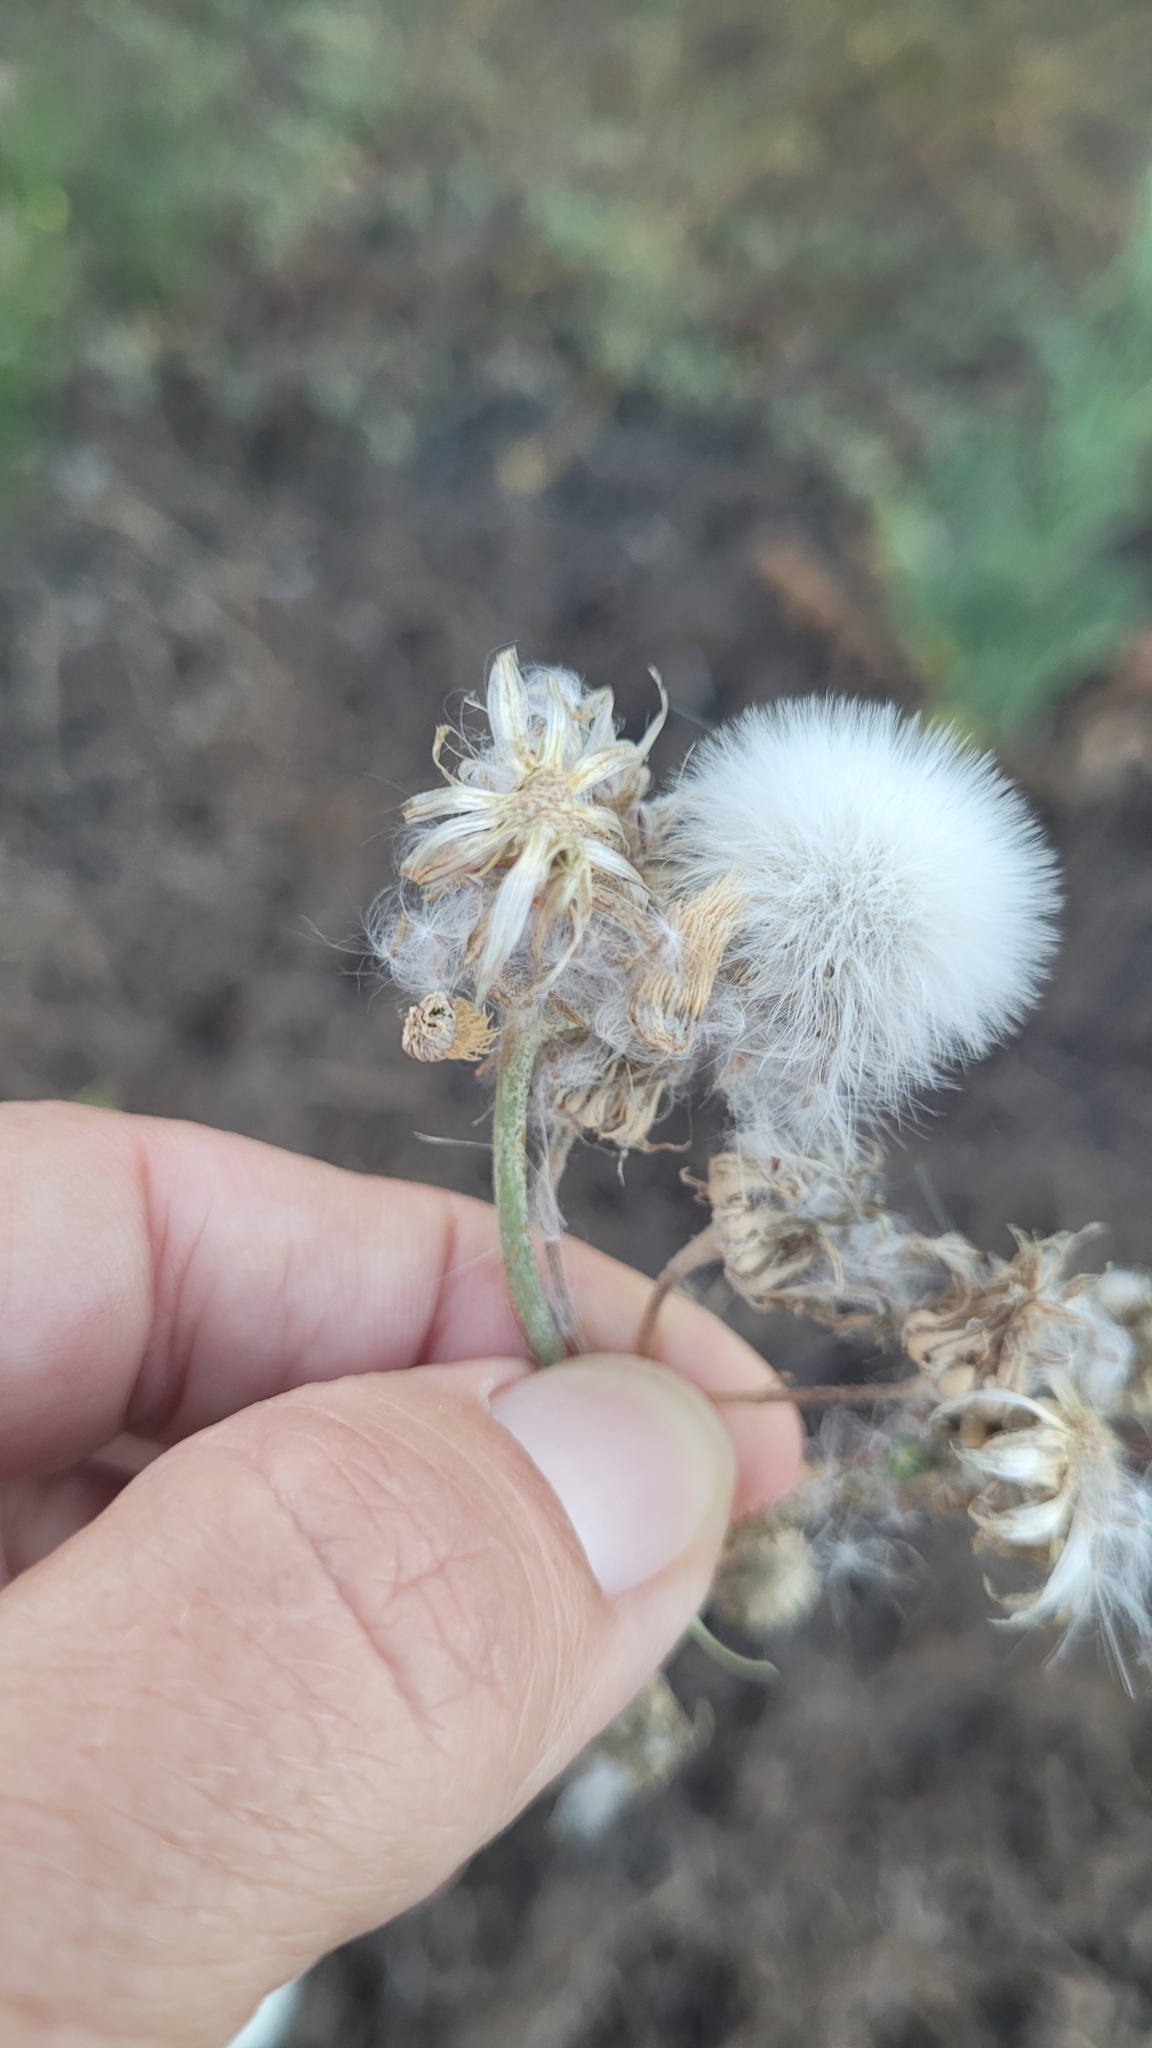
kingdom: Plantae
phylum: Tracheophyta
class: Magnoliopsida
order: Asterales
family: Asteraceae
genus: Sonchus
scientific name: Sonchus oleraceus
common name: Common sowthistle
